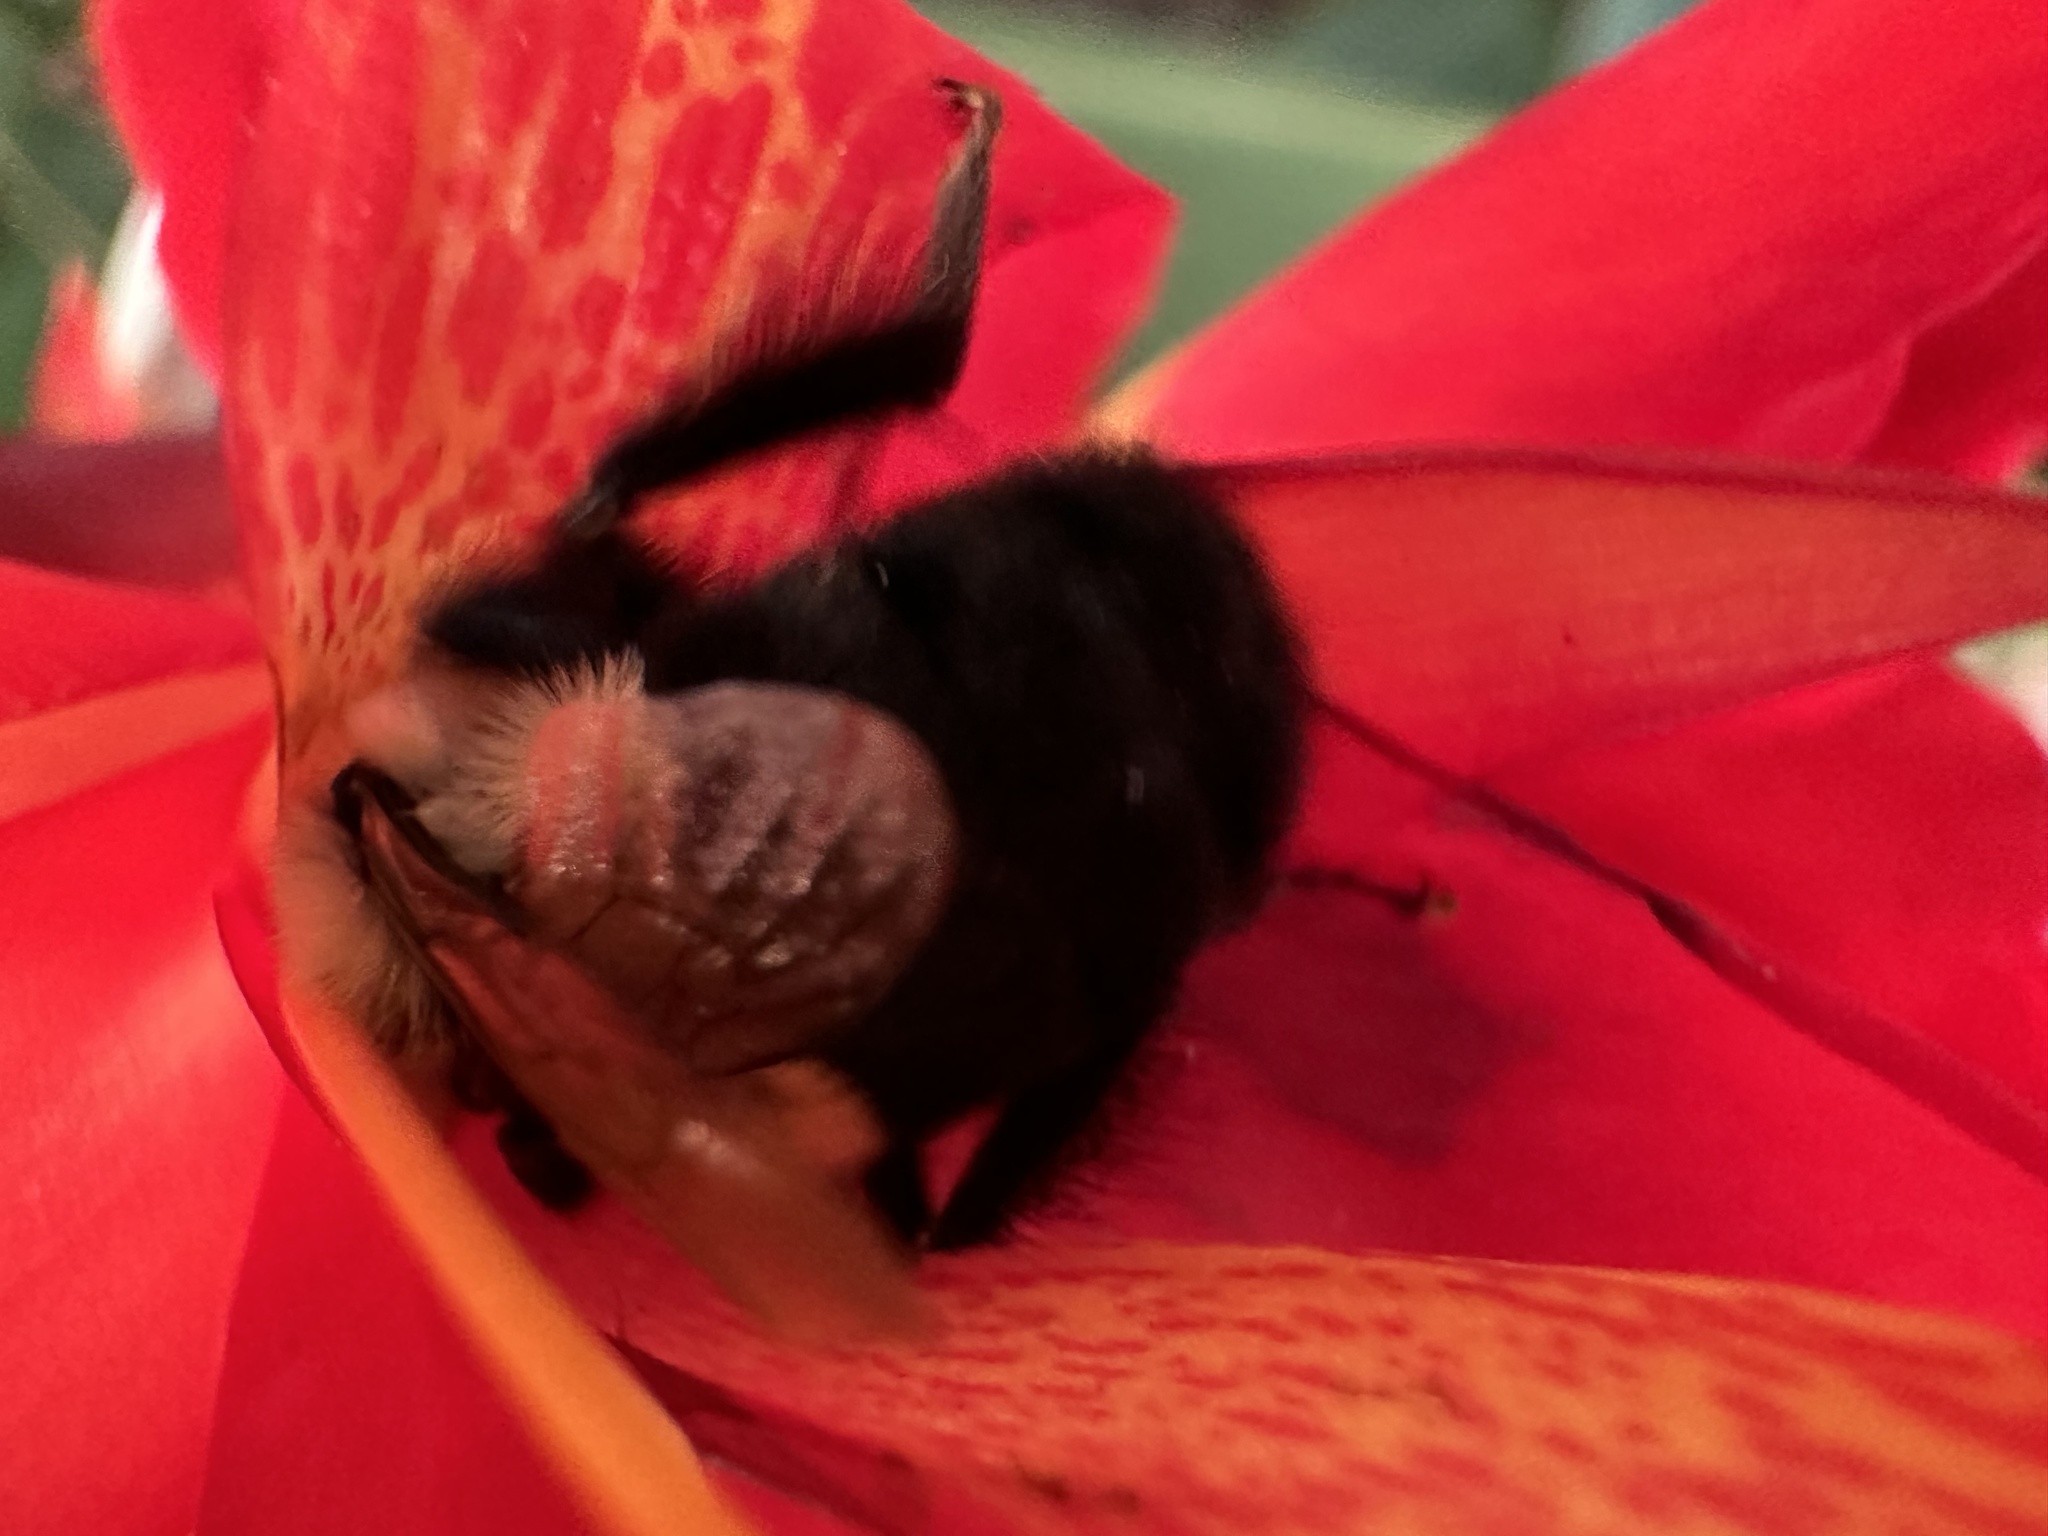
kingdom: Animalia
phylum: Arthropoda
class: Insecta
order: Hymenoptera
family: Apidae
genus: Bombus
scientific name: Bombus impatiens
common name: Common eastern bumble bee
